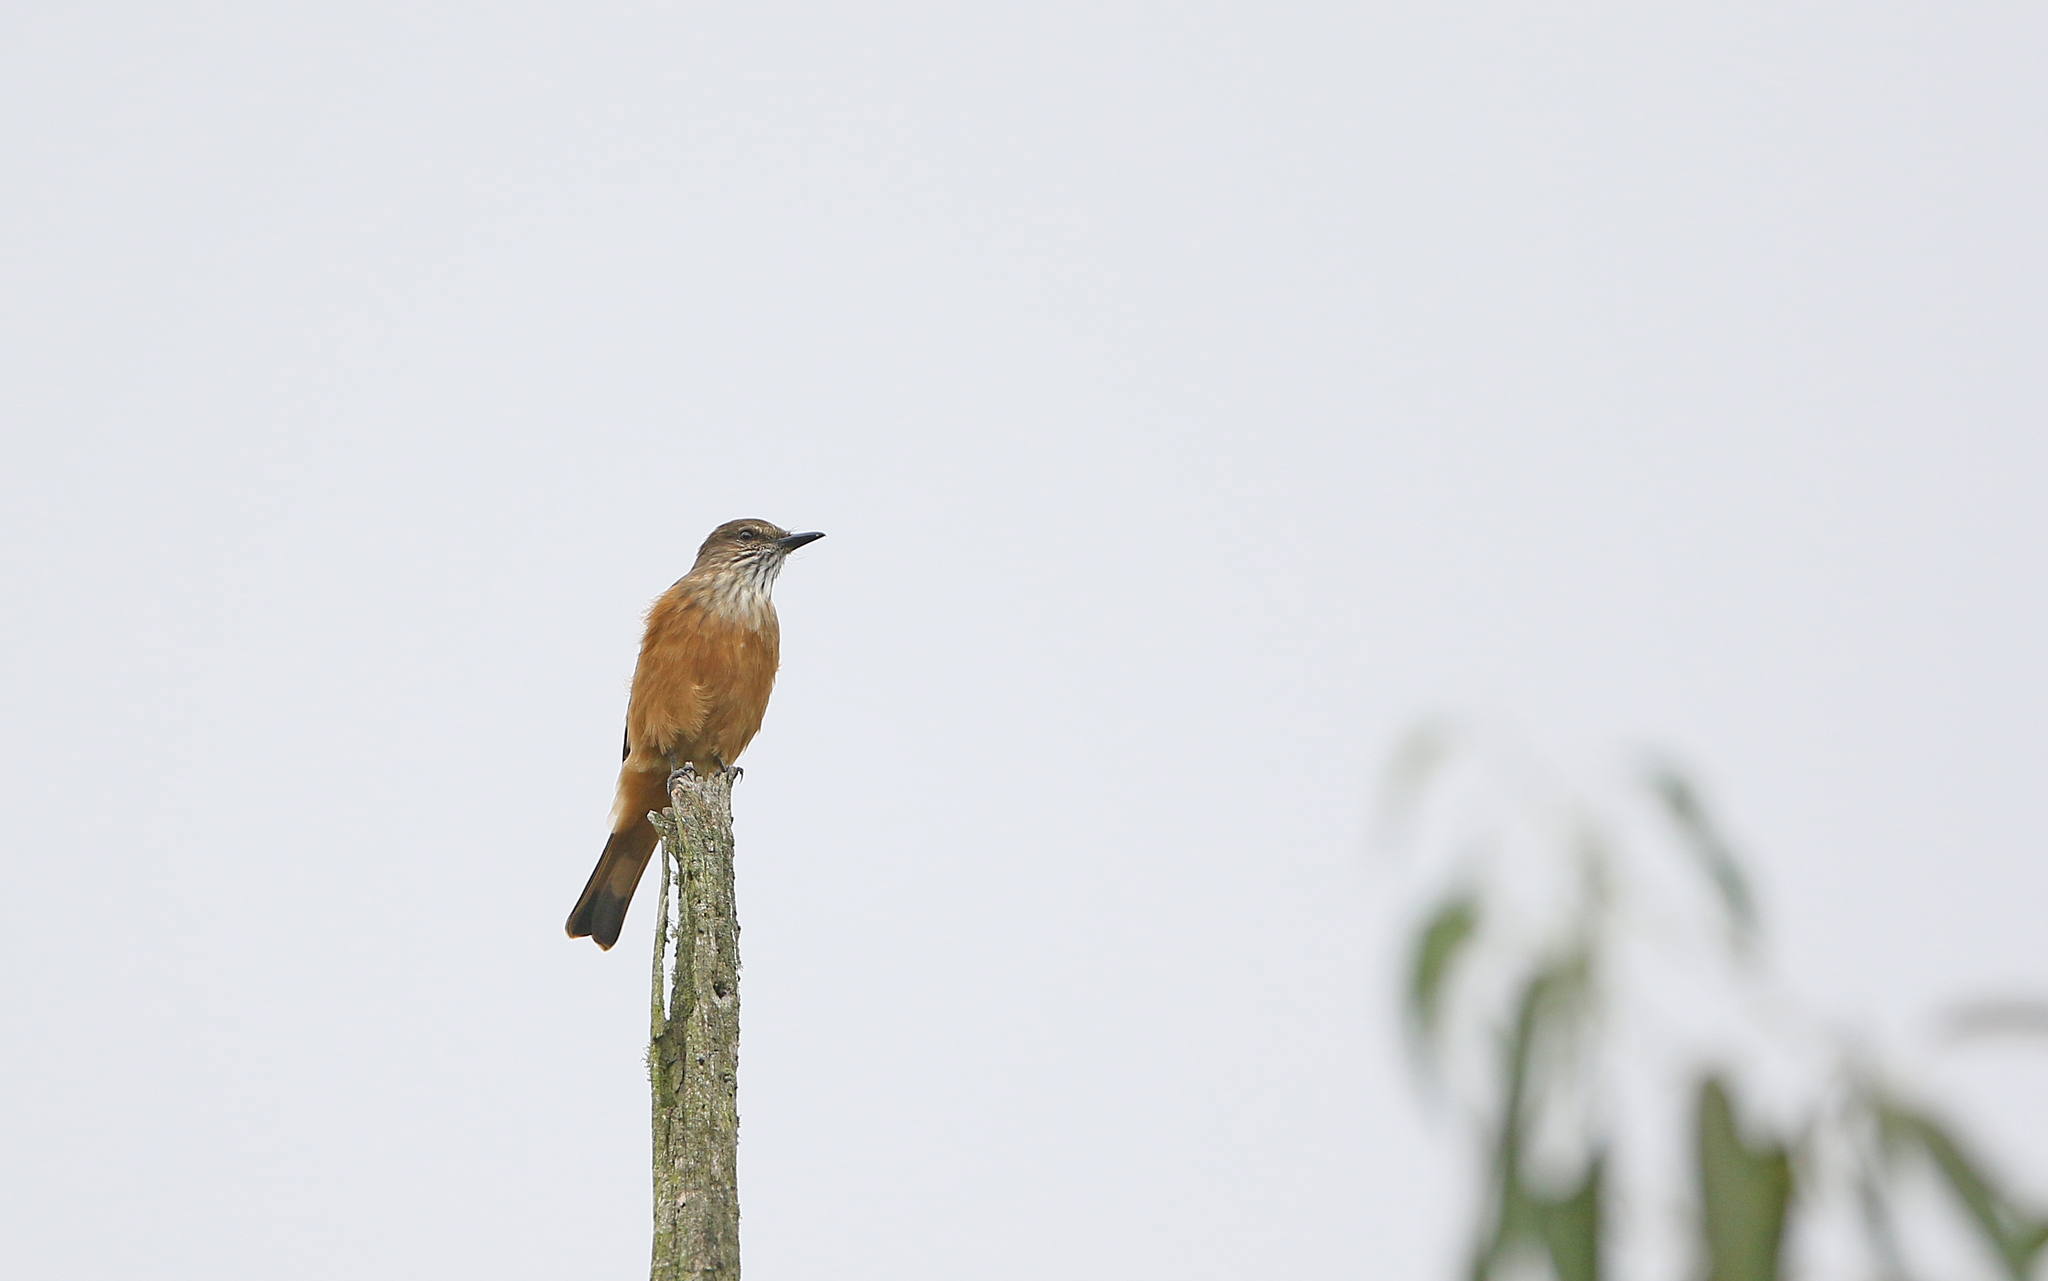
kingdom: Animalia
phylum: Chordata
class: Aves
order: Passeriformes
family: Tyrannidae
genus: Myiotheretes
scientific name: Myiotheretes striaticollis
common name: Streak-throated bush tyrant
